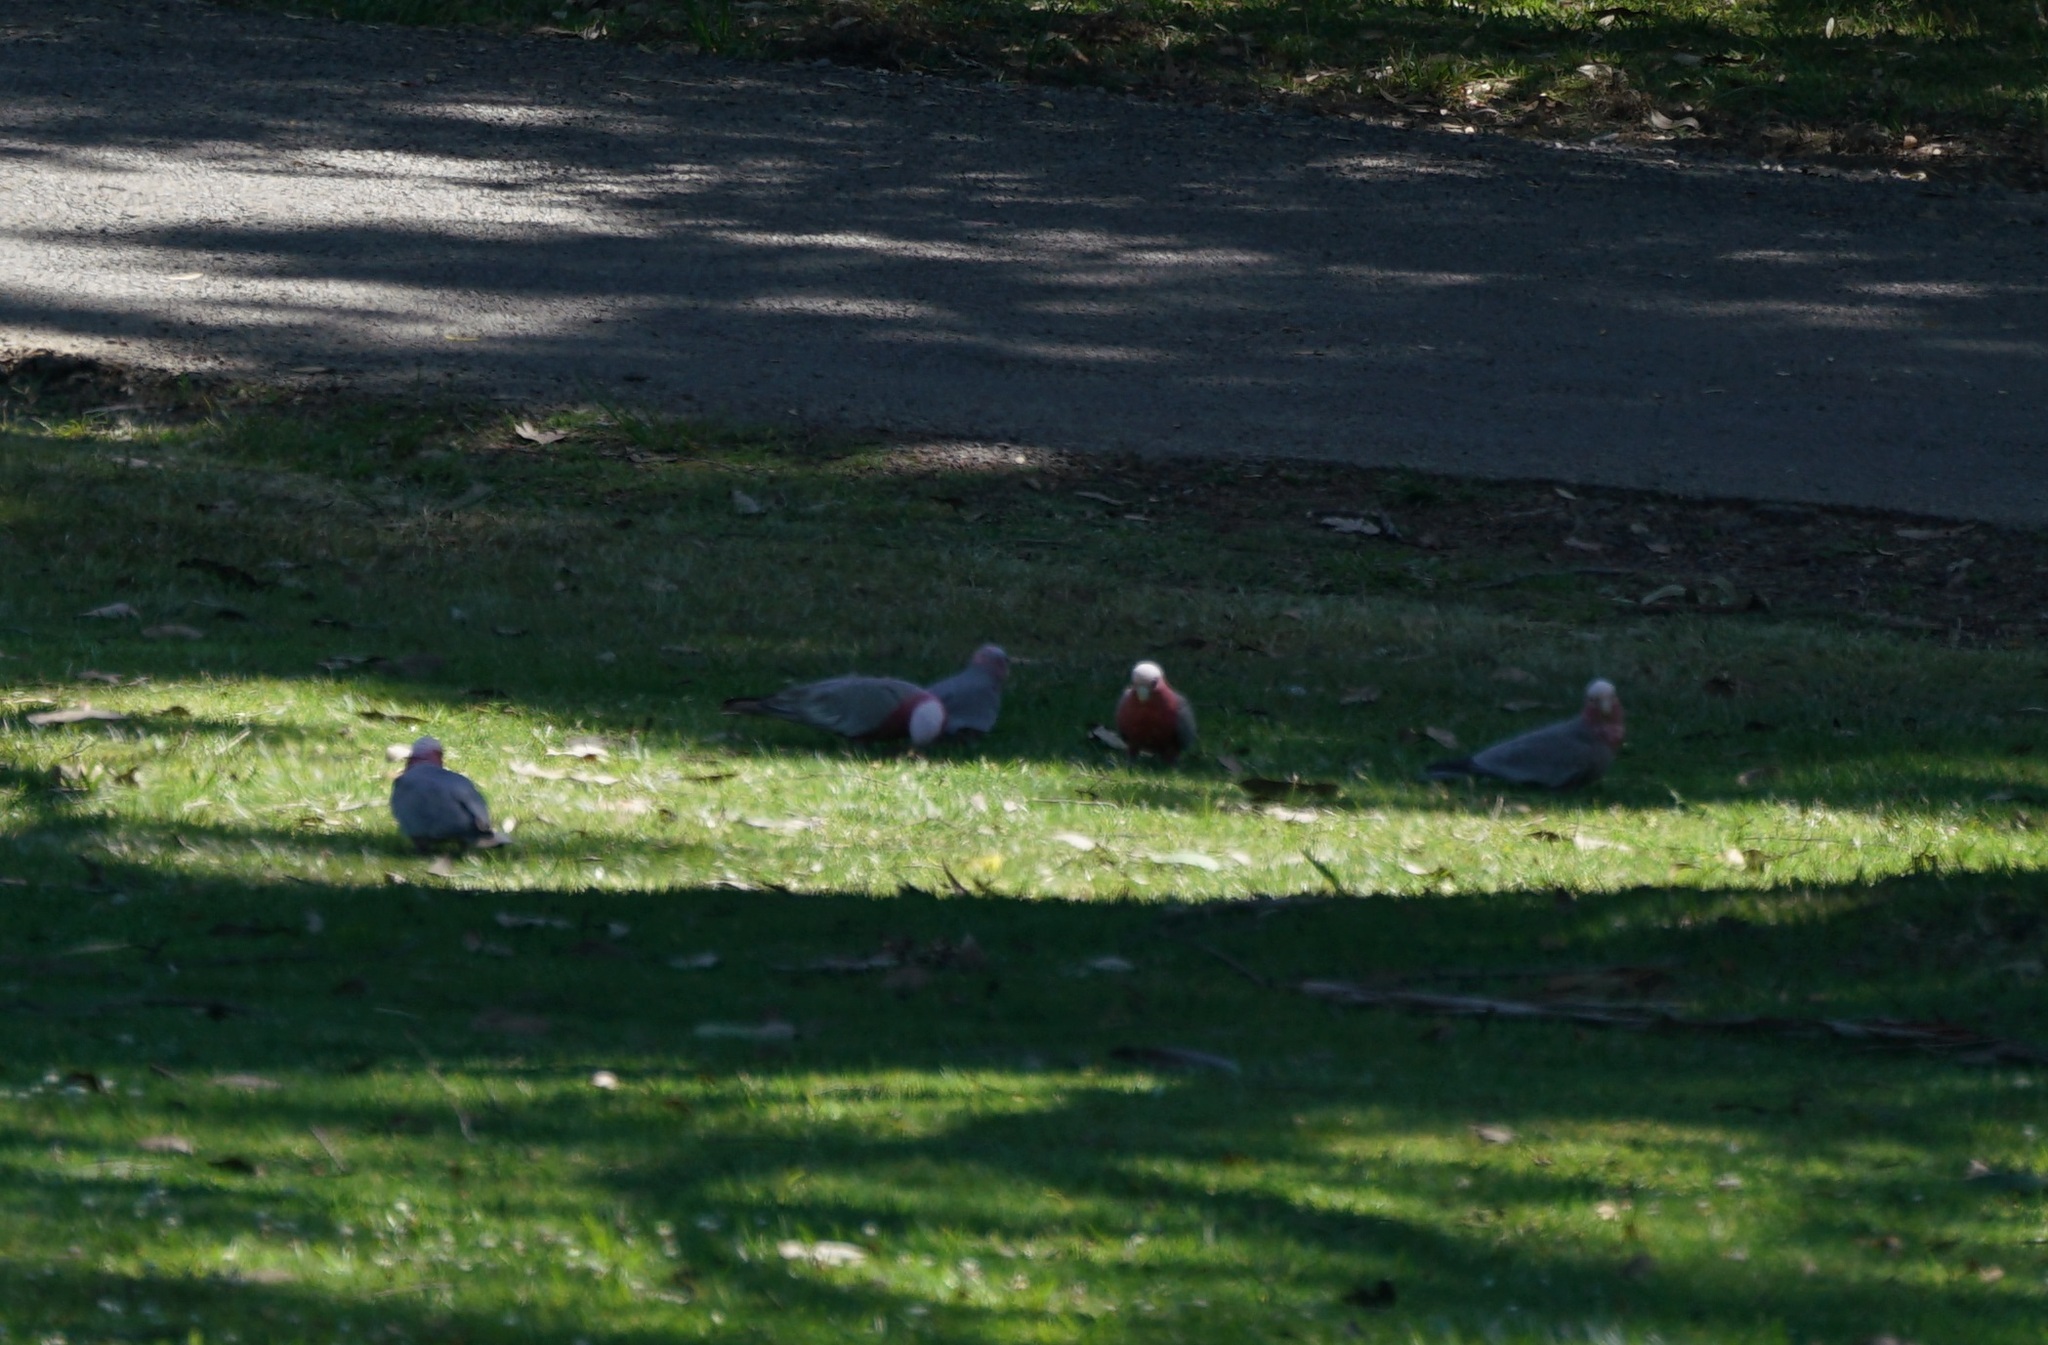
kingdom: Animalia
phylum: Chordata
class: Aves
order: Psittaciformes
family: Psittacidae
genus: Eolophus
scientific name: Eolophus roseicapilla
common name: Galah
